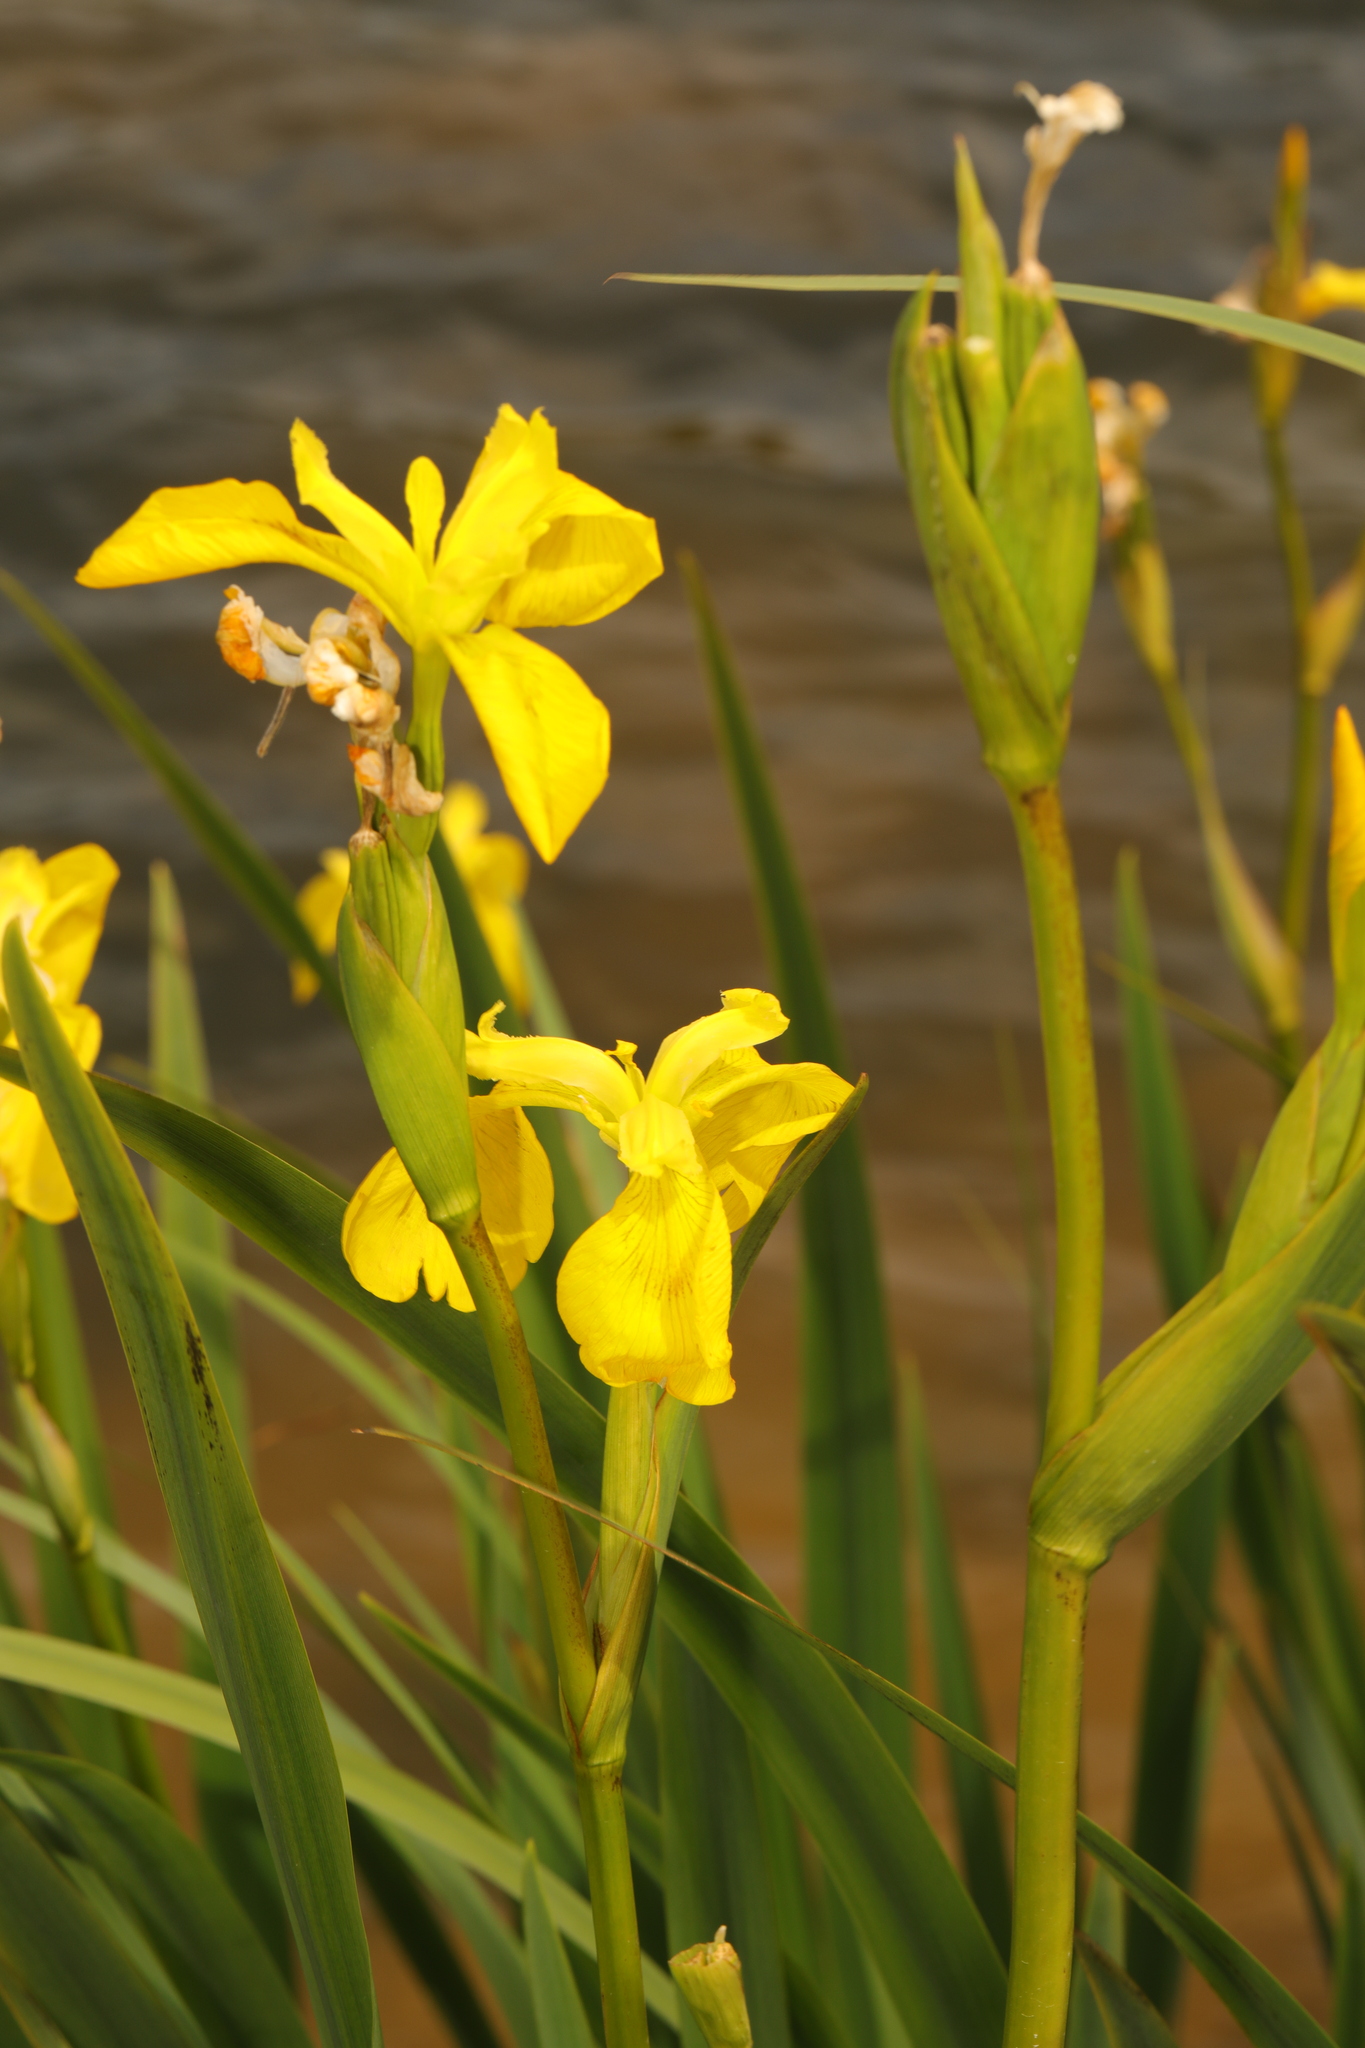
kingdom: Plantae
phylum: Tracheophyta
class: Liliopsida
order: Asparagales
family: Iridaceae
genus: Iris
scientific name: Iris pseudacorus
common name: Yellow flag
